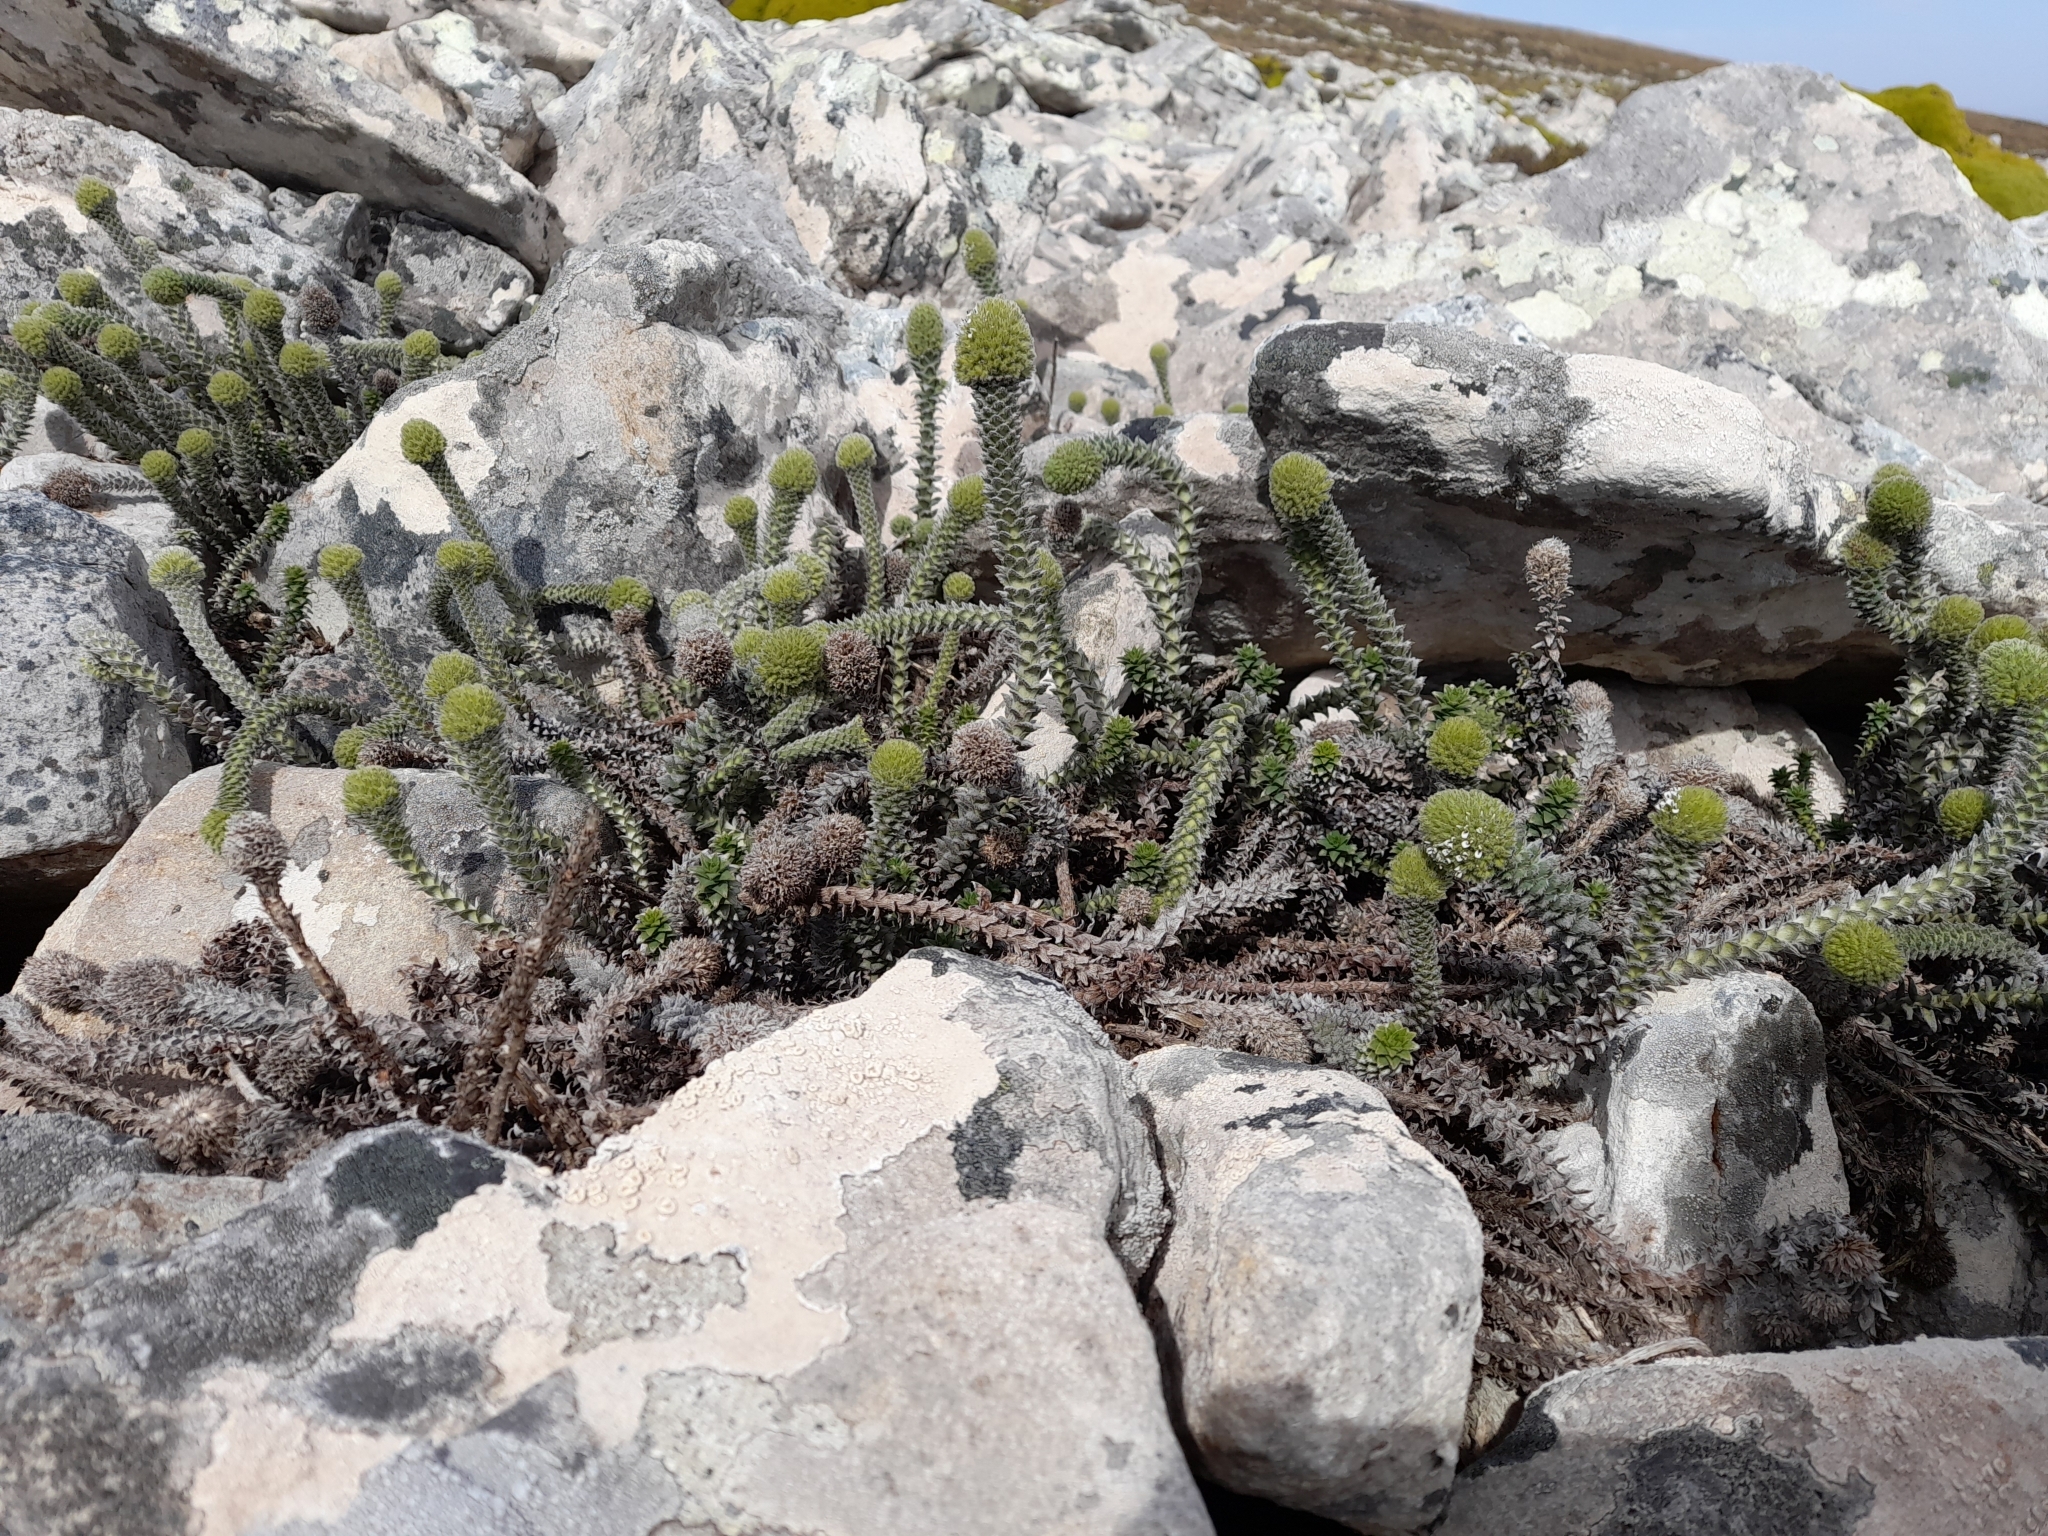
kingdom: Plantae
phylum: Tracheophyta
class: Magnoliopsida
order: Asterales
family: Asteraceae
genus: Nassauvia
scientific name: Nassauvia serpens
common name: Snakeplant
